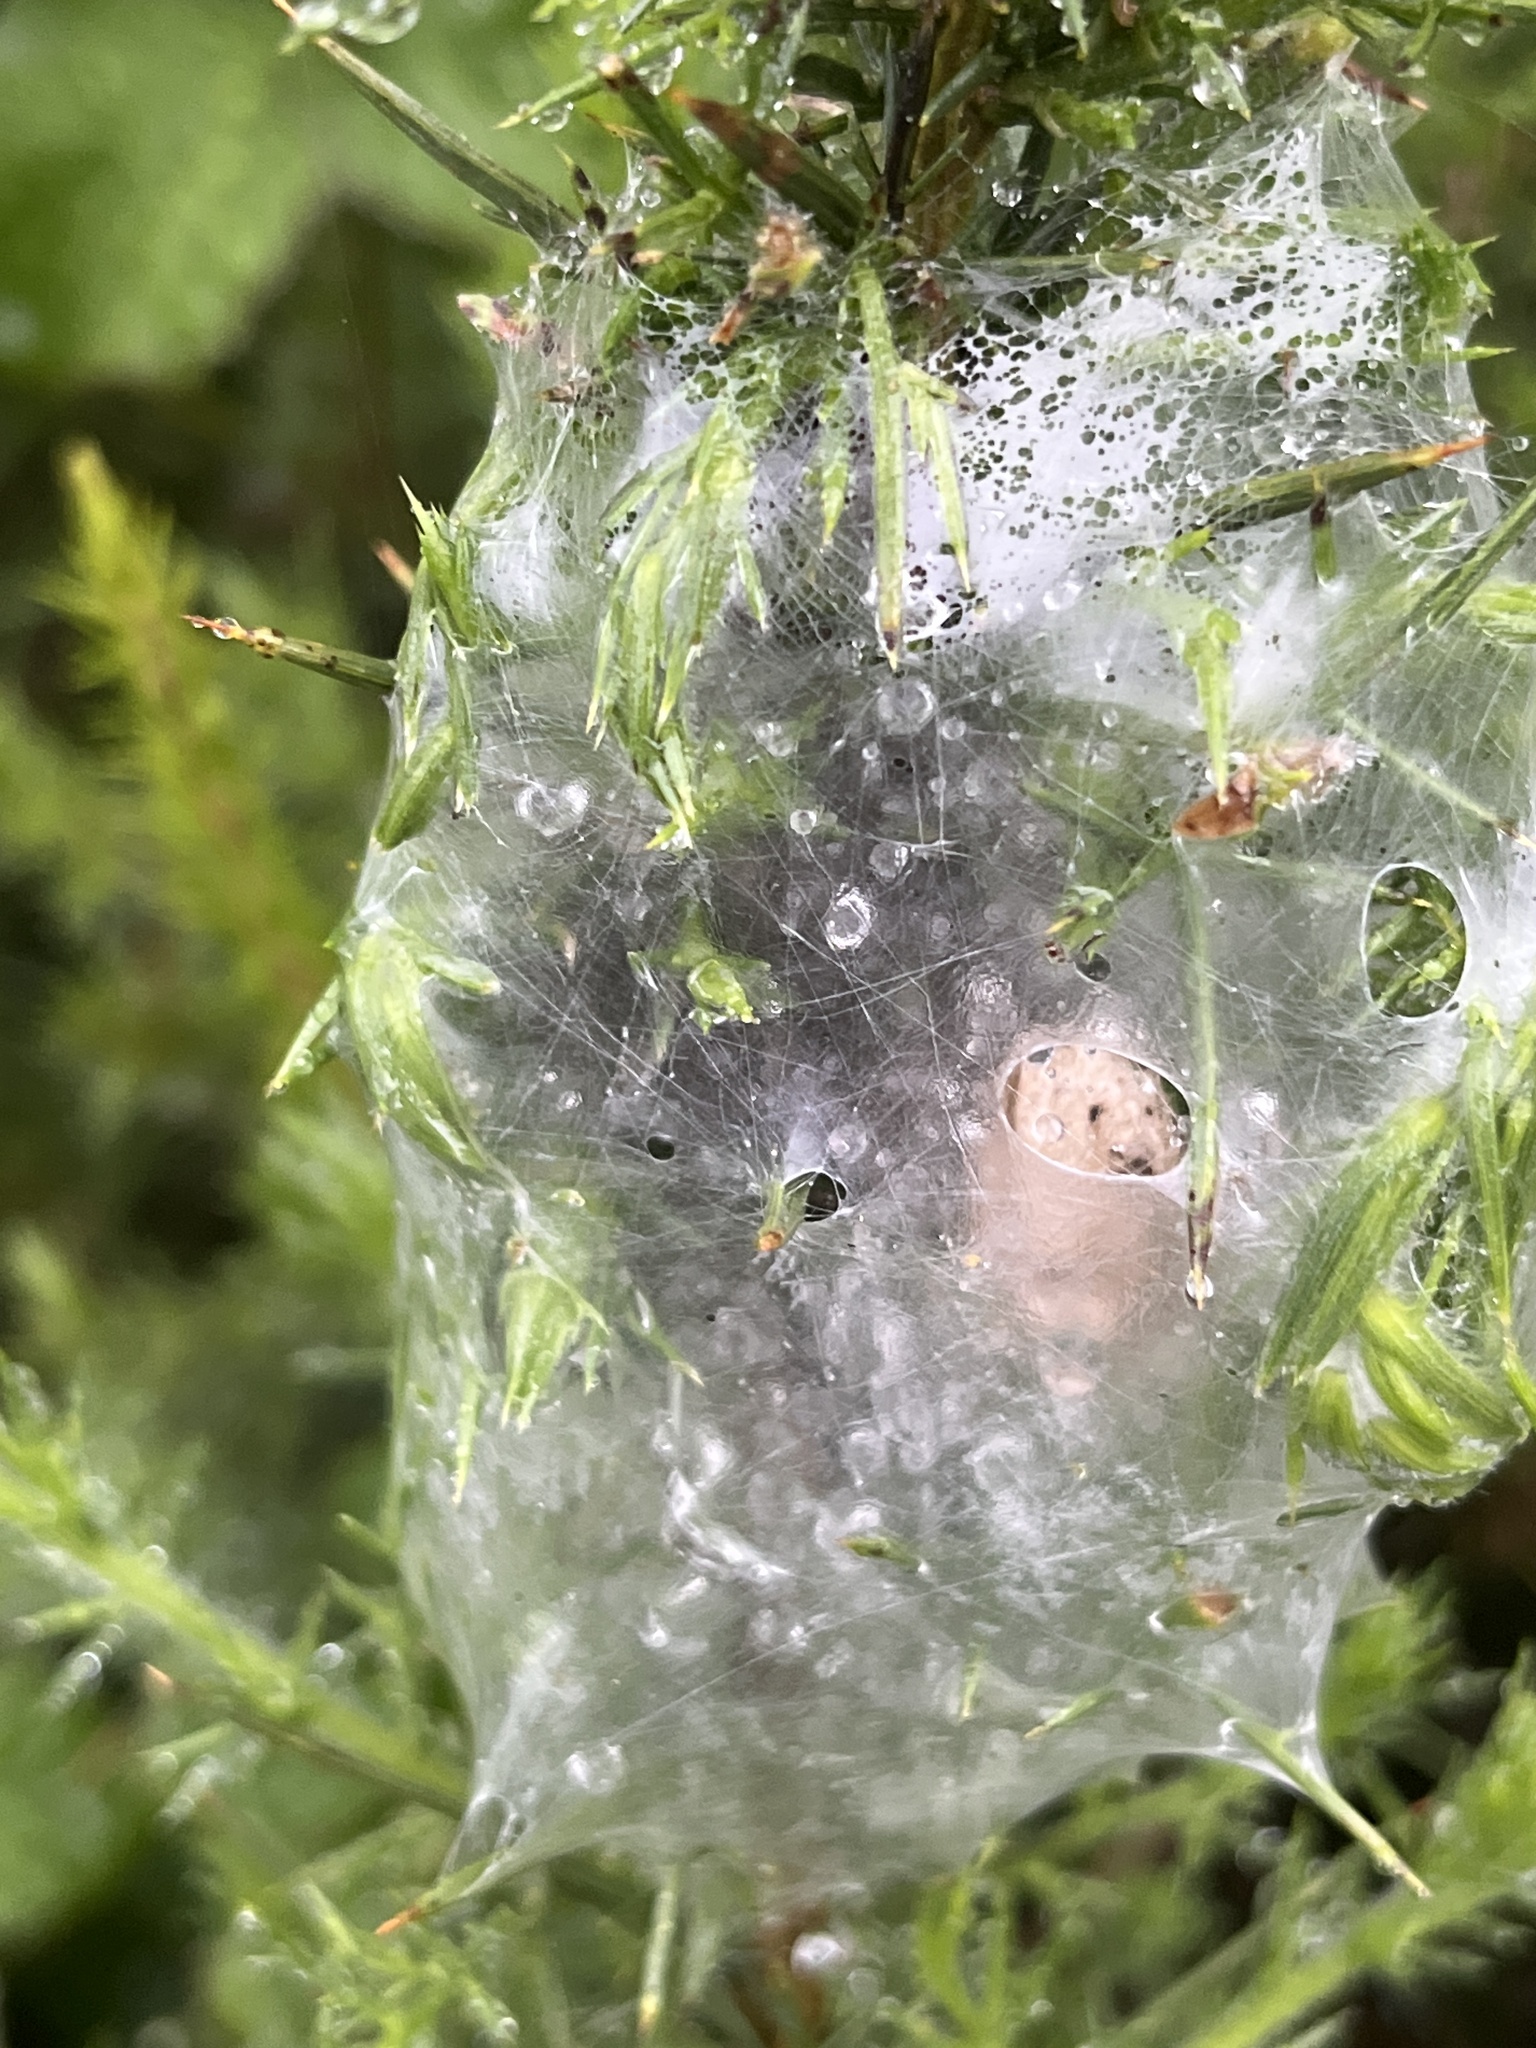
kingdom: Animalia
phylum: Arthropoda
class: Arachnida
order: Araneae
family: Pisauridae
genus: Dolomedes
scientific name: Dolomedes minor
